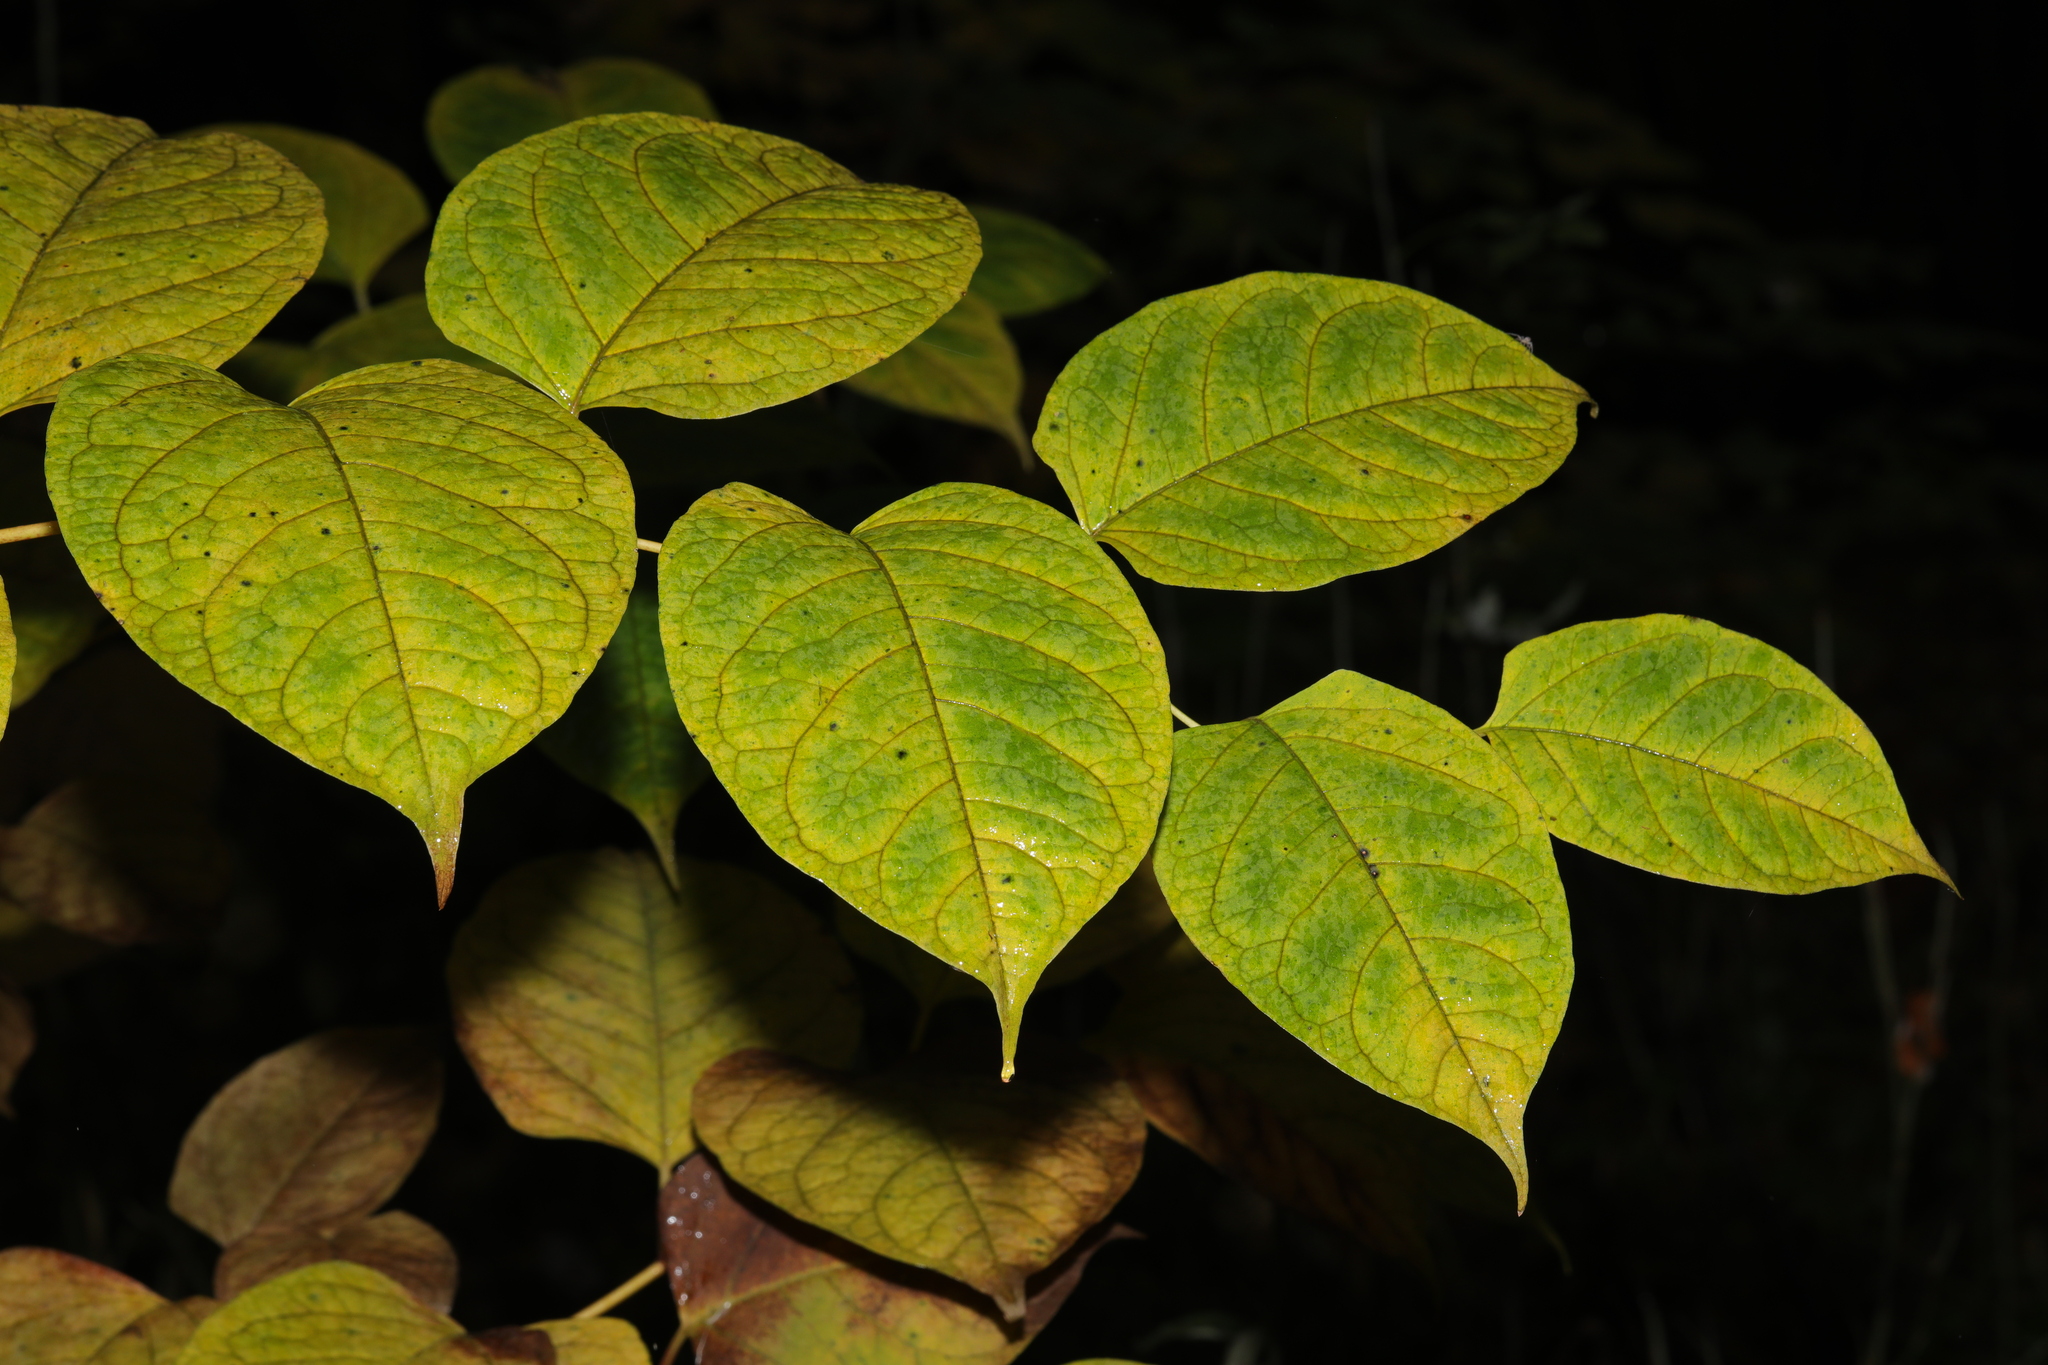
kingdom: Plantae
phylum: Tracheophyta
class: Magnoliopsida
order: Caryophyllales
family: Polygonaceae
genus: Reynoutria
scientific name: Reynoutria japonica
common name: Japanese knotweed
